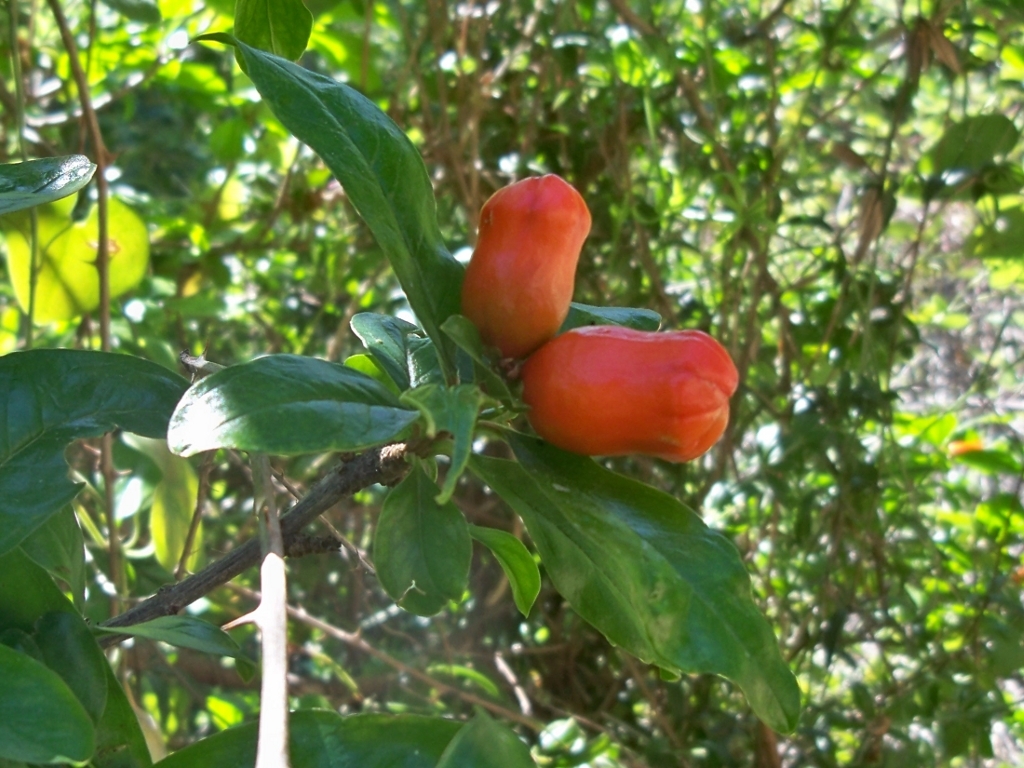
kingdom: Plantae
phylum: Tracheophyta
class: Magnoliopsida
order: Myrtales
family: Lythraceae
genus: Punica
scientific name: Punica granatum
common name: Pomegranate
